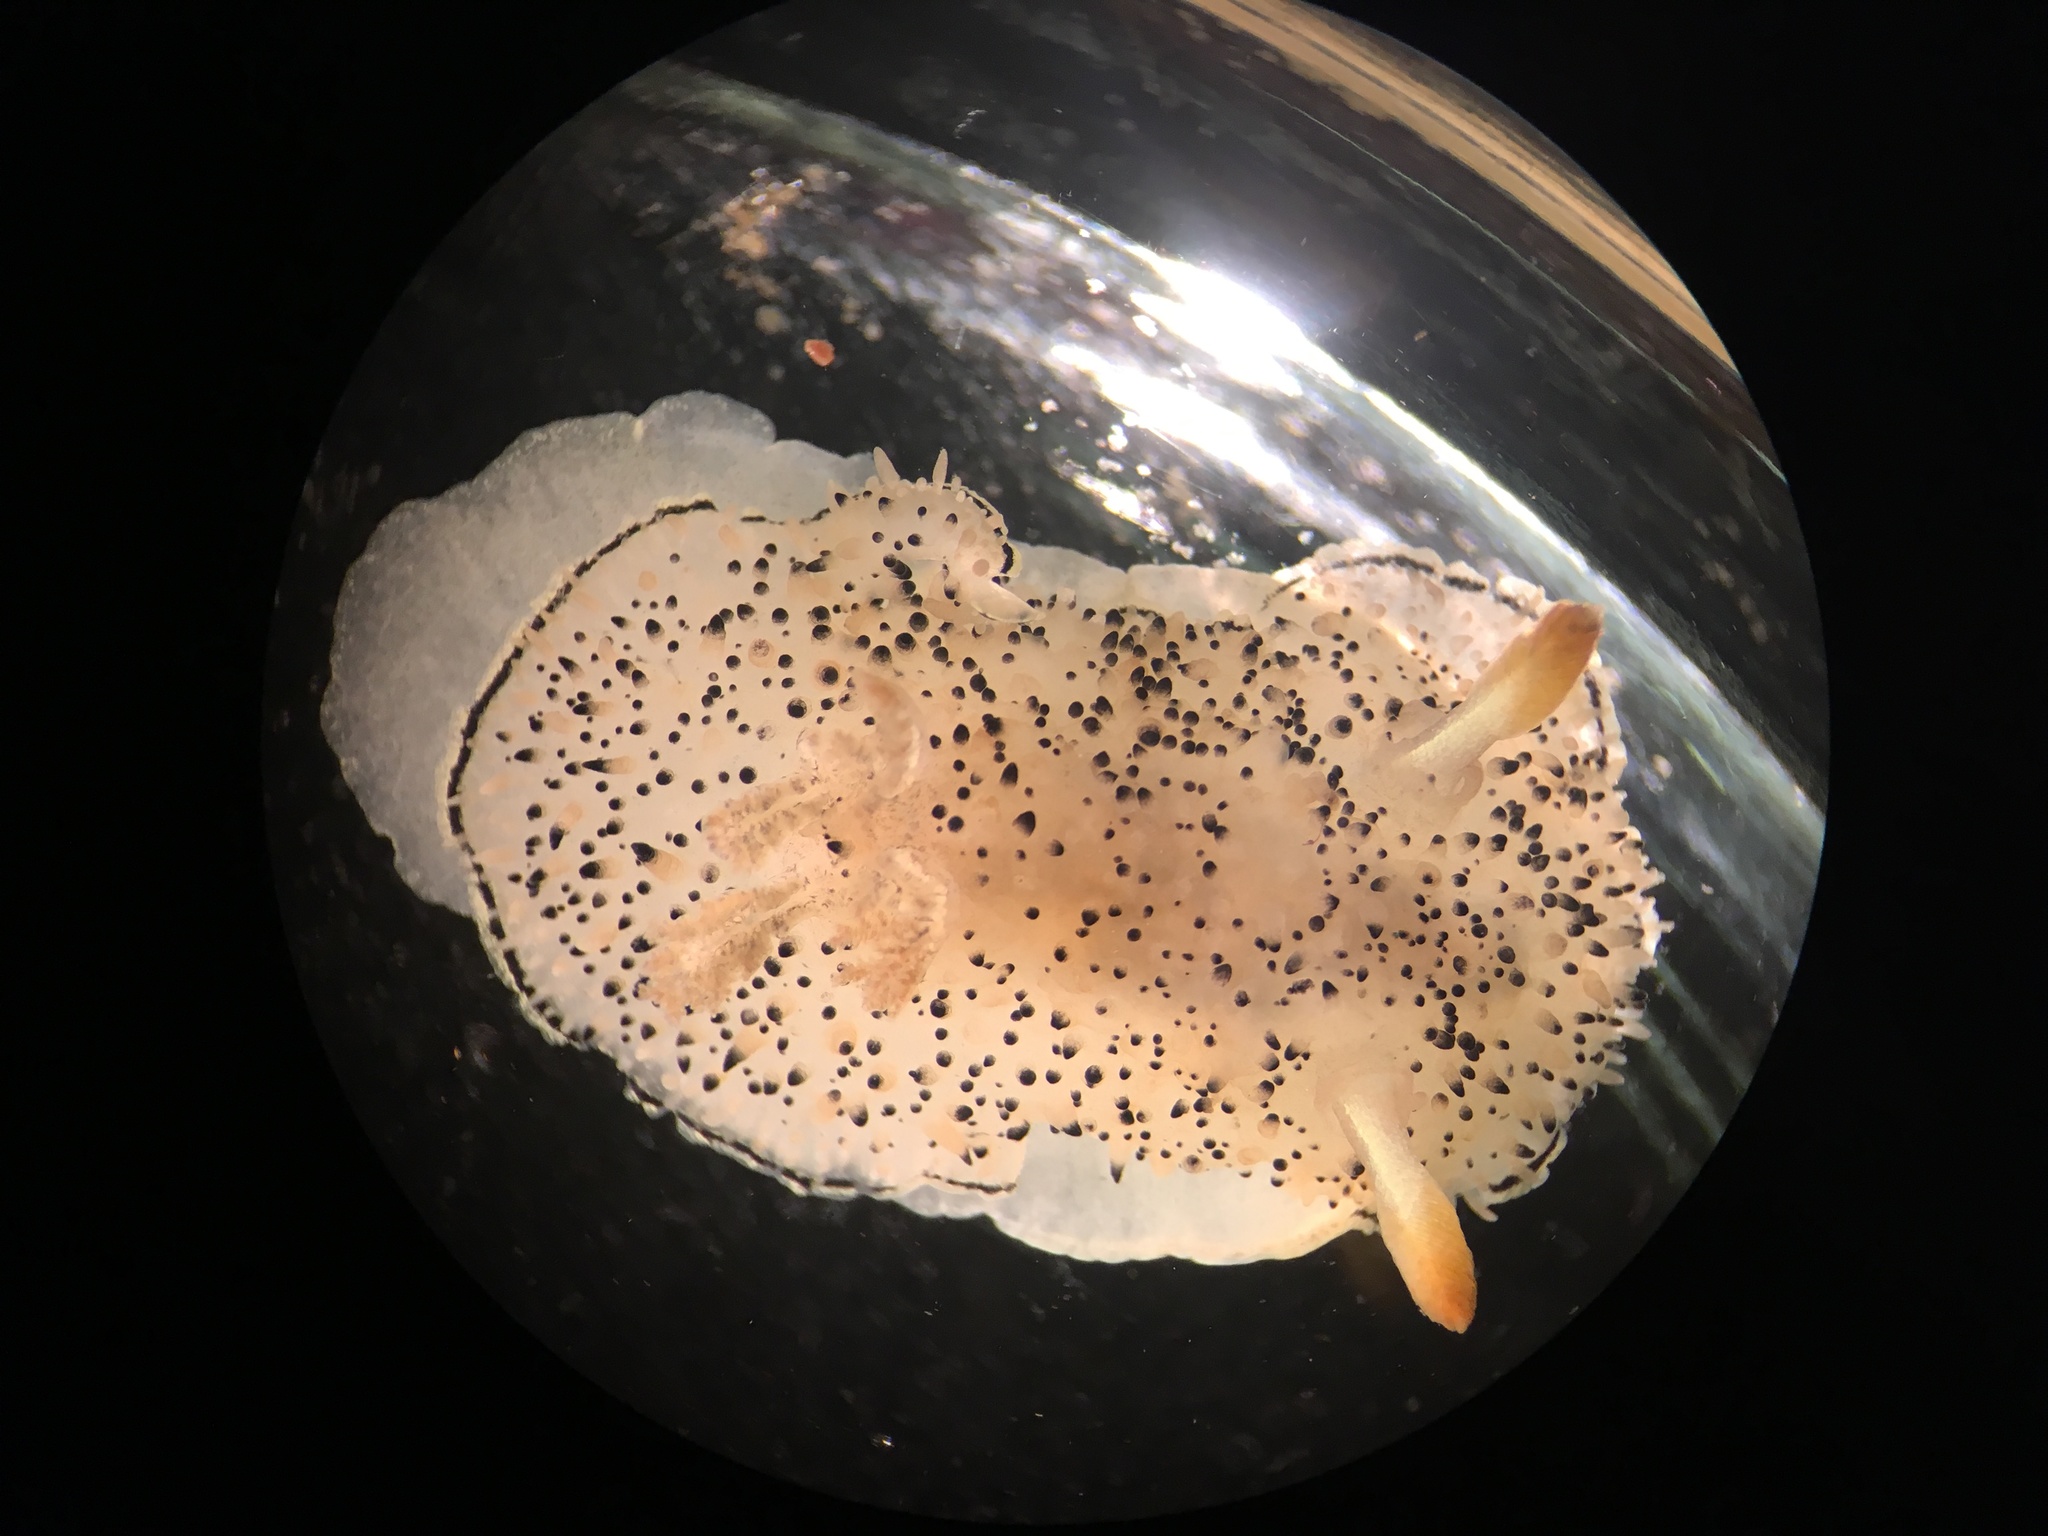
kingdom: Animalia
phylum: Mollusca
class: Gastropoda
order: Nudibranchia
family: Onchidorididae
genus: Acanthodoris
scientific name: Acanthodoris rhodoceras
